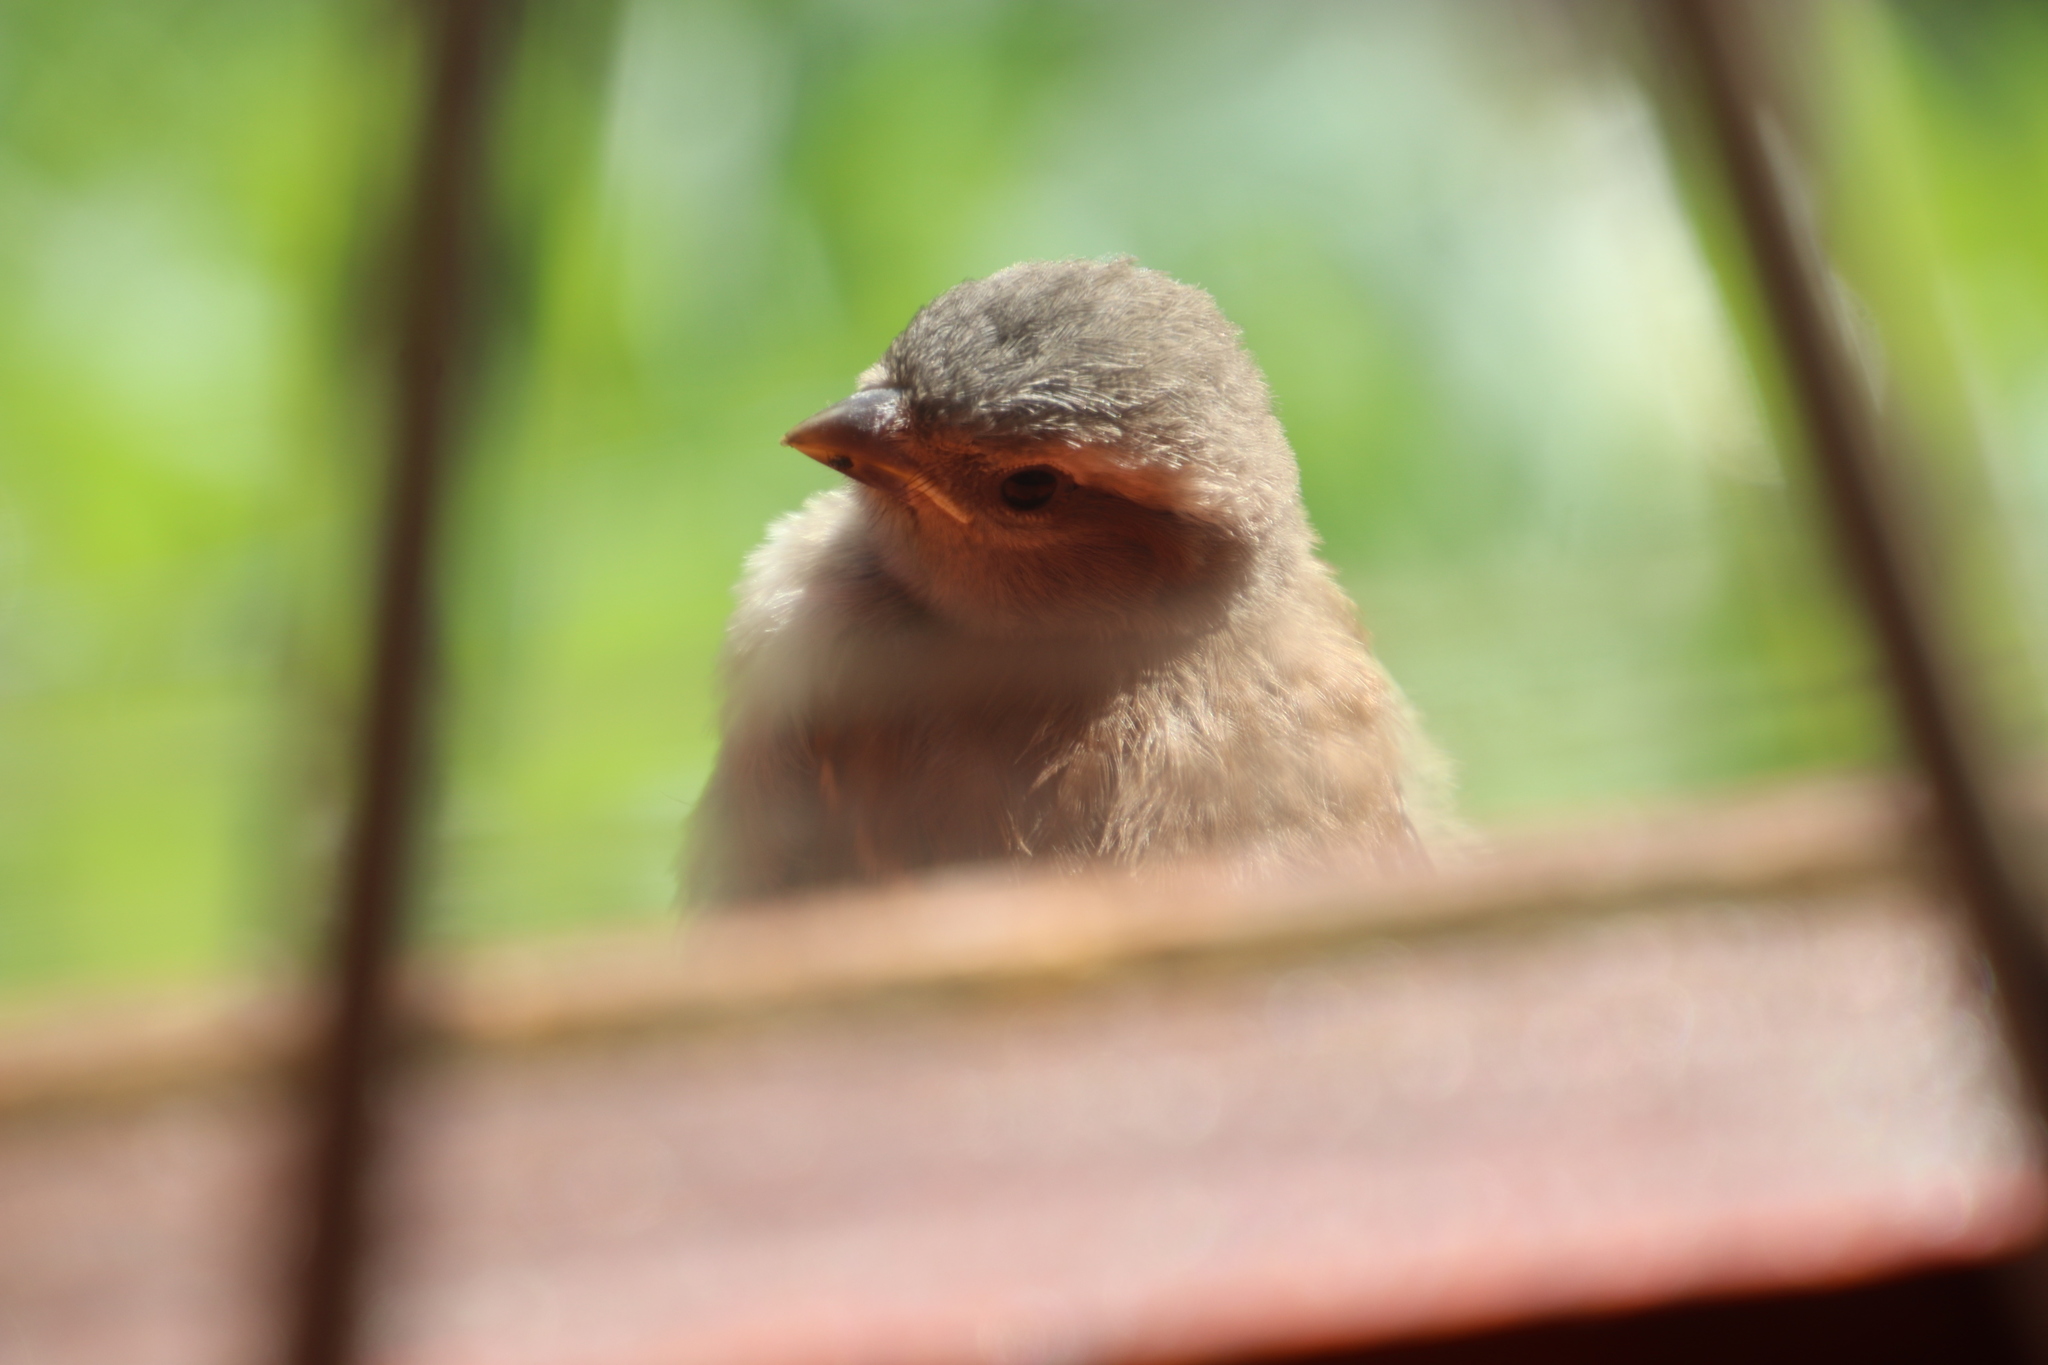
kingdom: Animalia
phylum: Chordata
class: Aves
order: Passeriformes
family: Passeridae
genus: Passer
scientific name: Passer melanurus
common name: Cape sparrow
